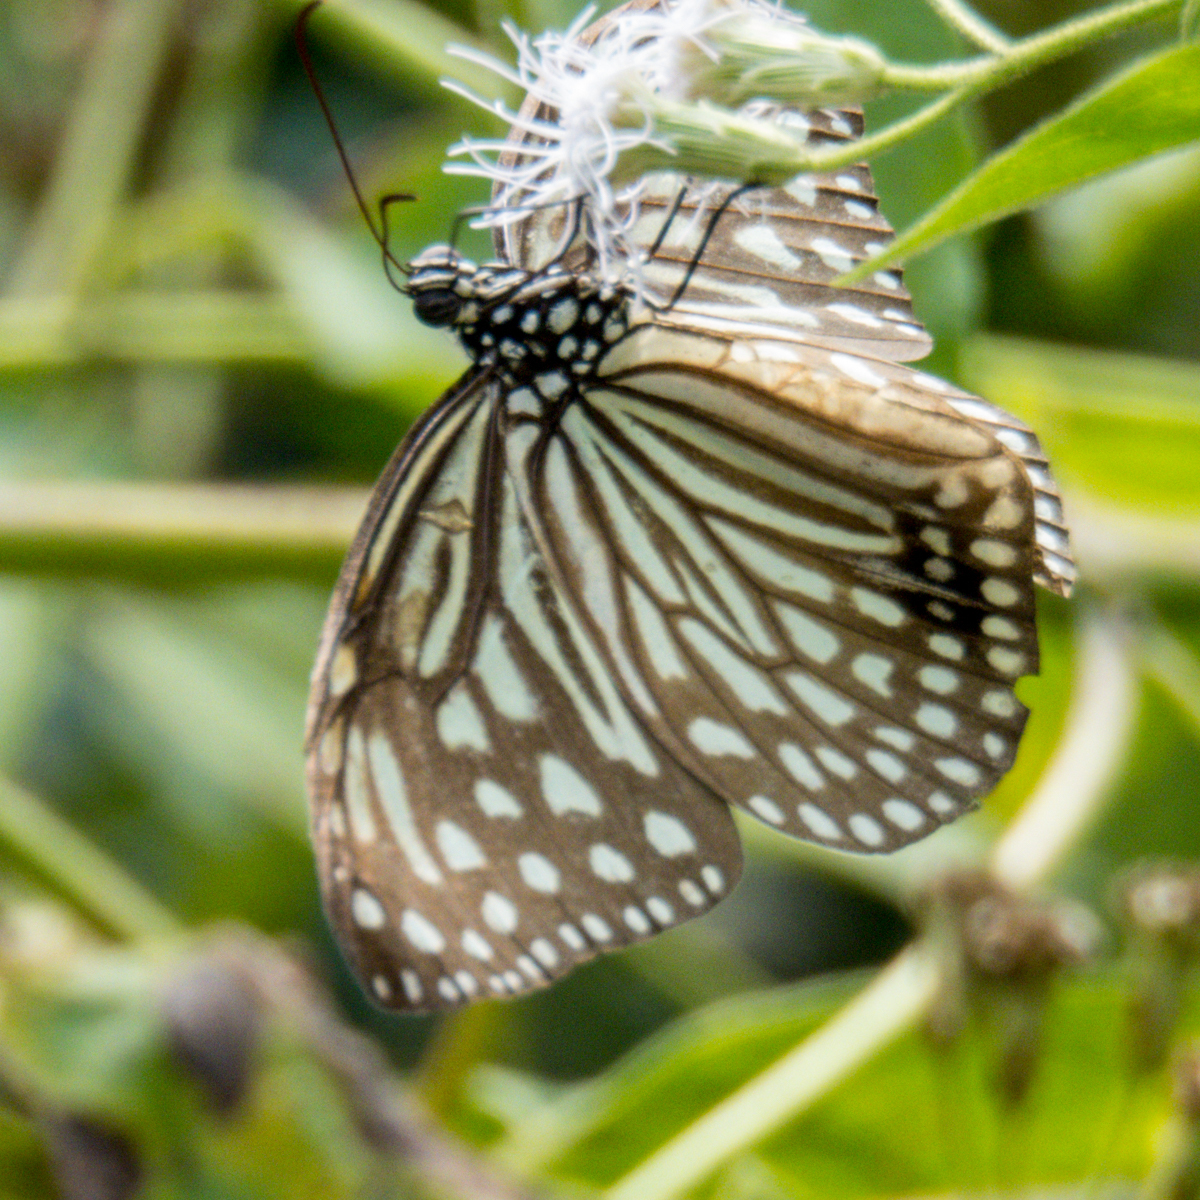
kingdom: Animalia
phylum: Arthropoda
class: Insecta
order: Lepidoptera
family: Nymphalidae
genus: Parantica
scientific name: Parantica agleoides
